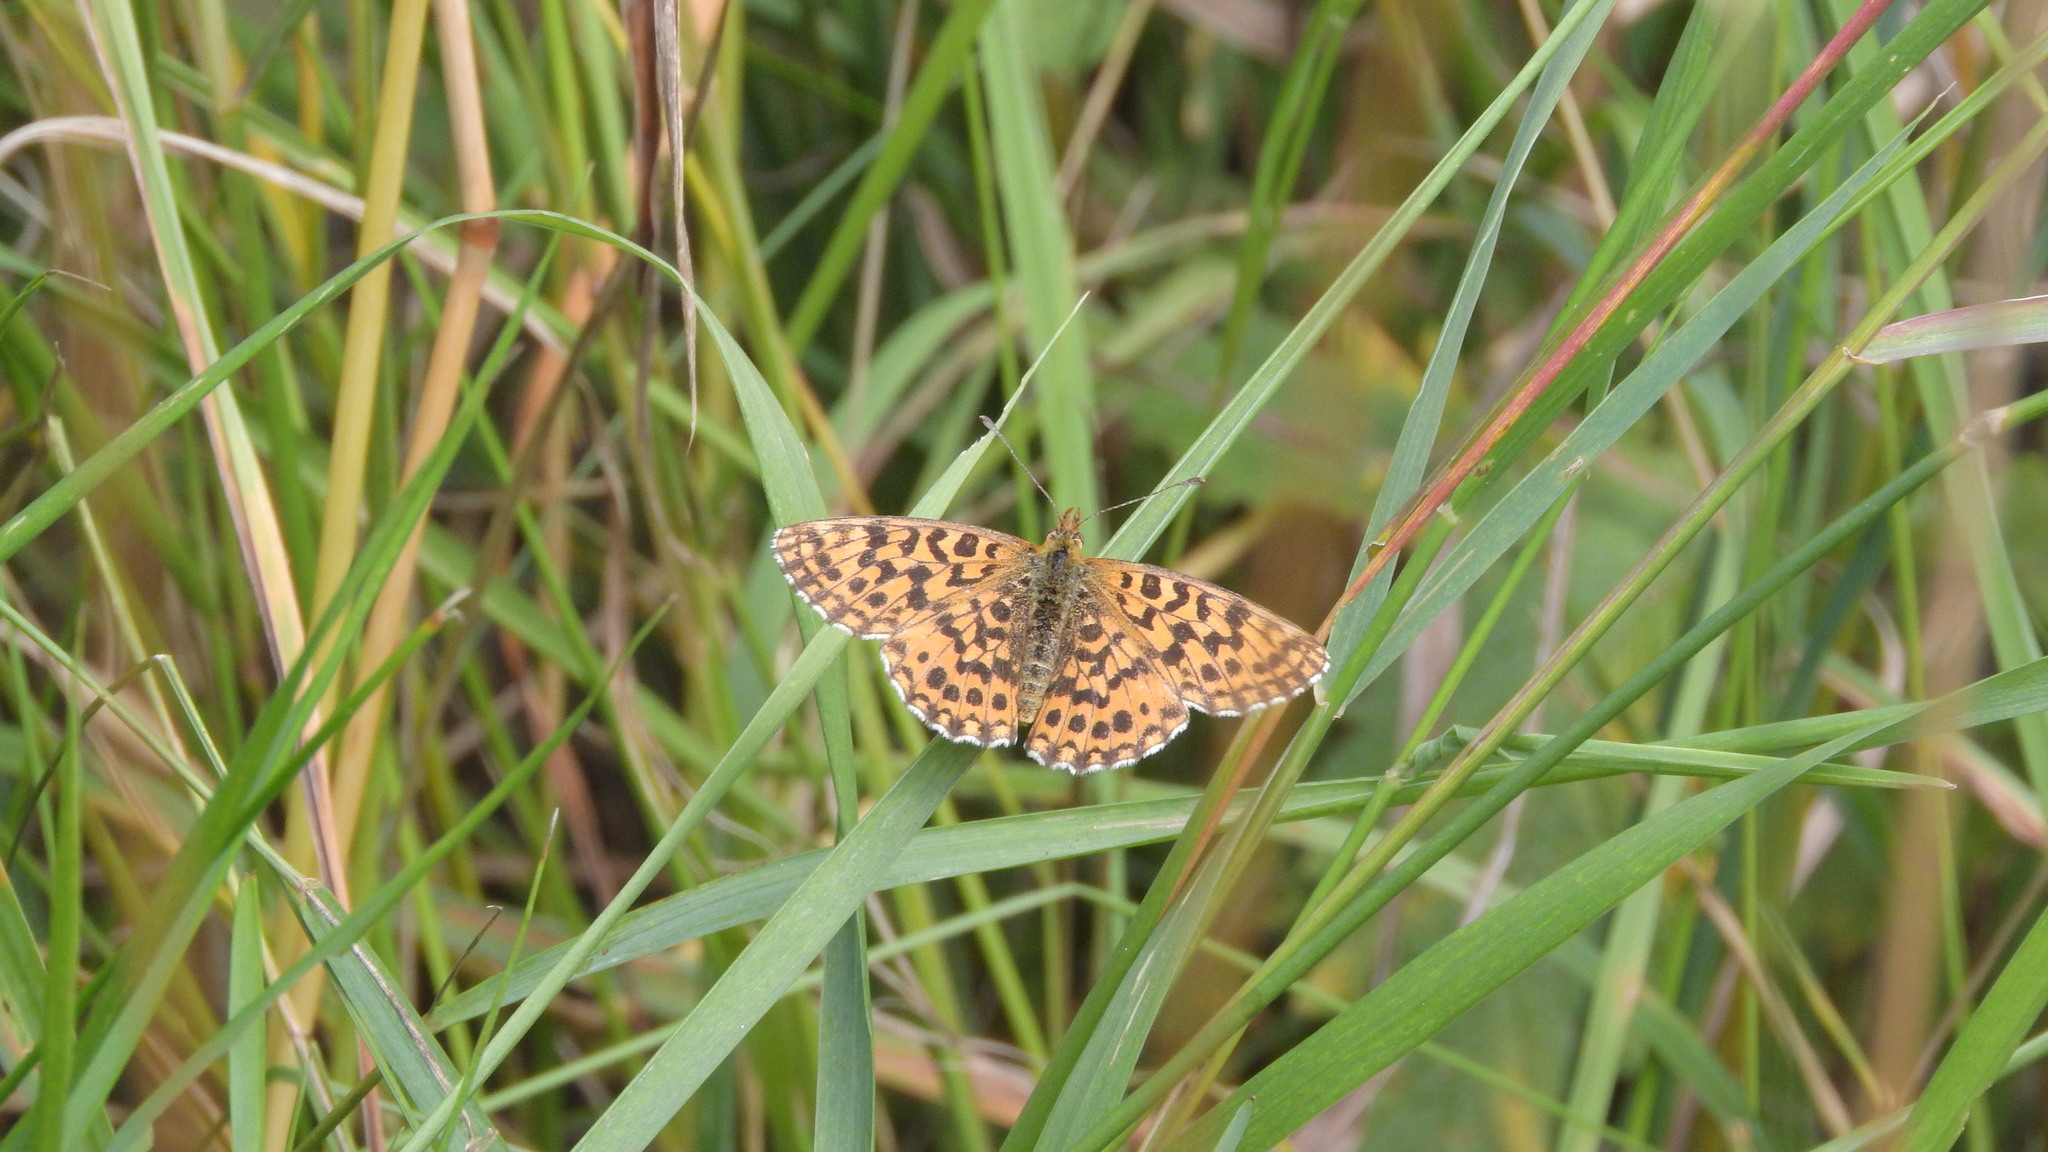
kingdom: Animalia
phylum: Arthropoda
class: Insecta
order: Lepidoptera
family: Nymphalidae
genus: Boloria
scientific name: Boloria dia
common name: Weaver's fritillary
